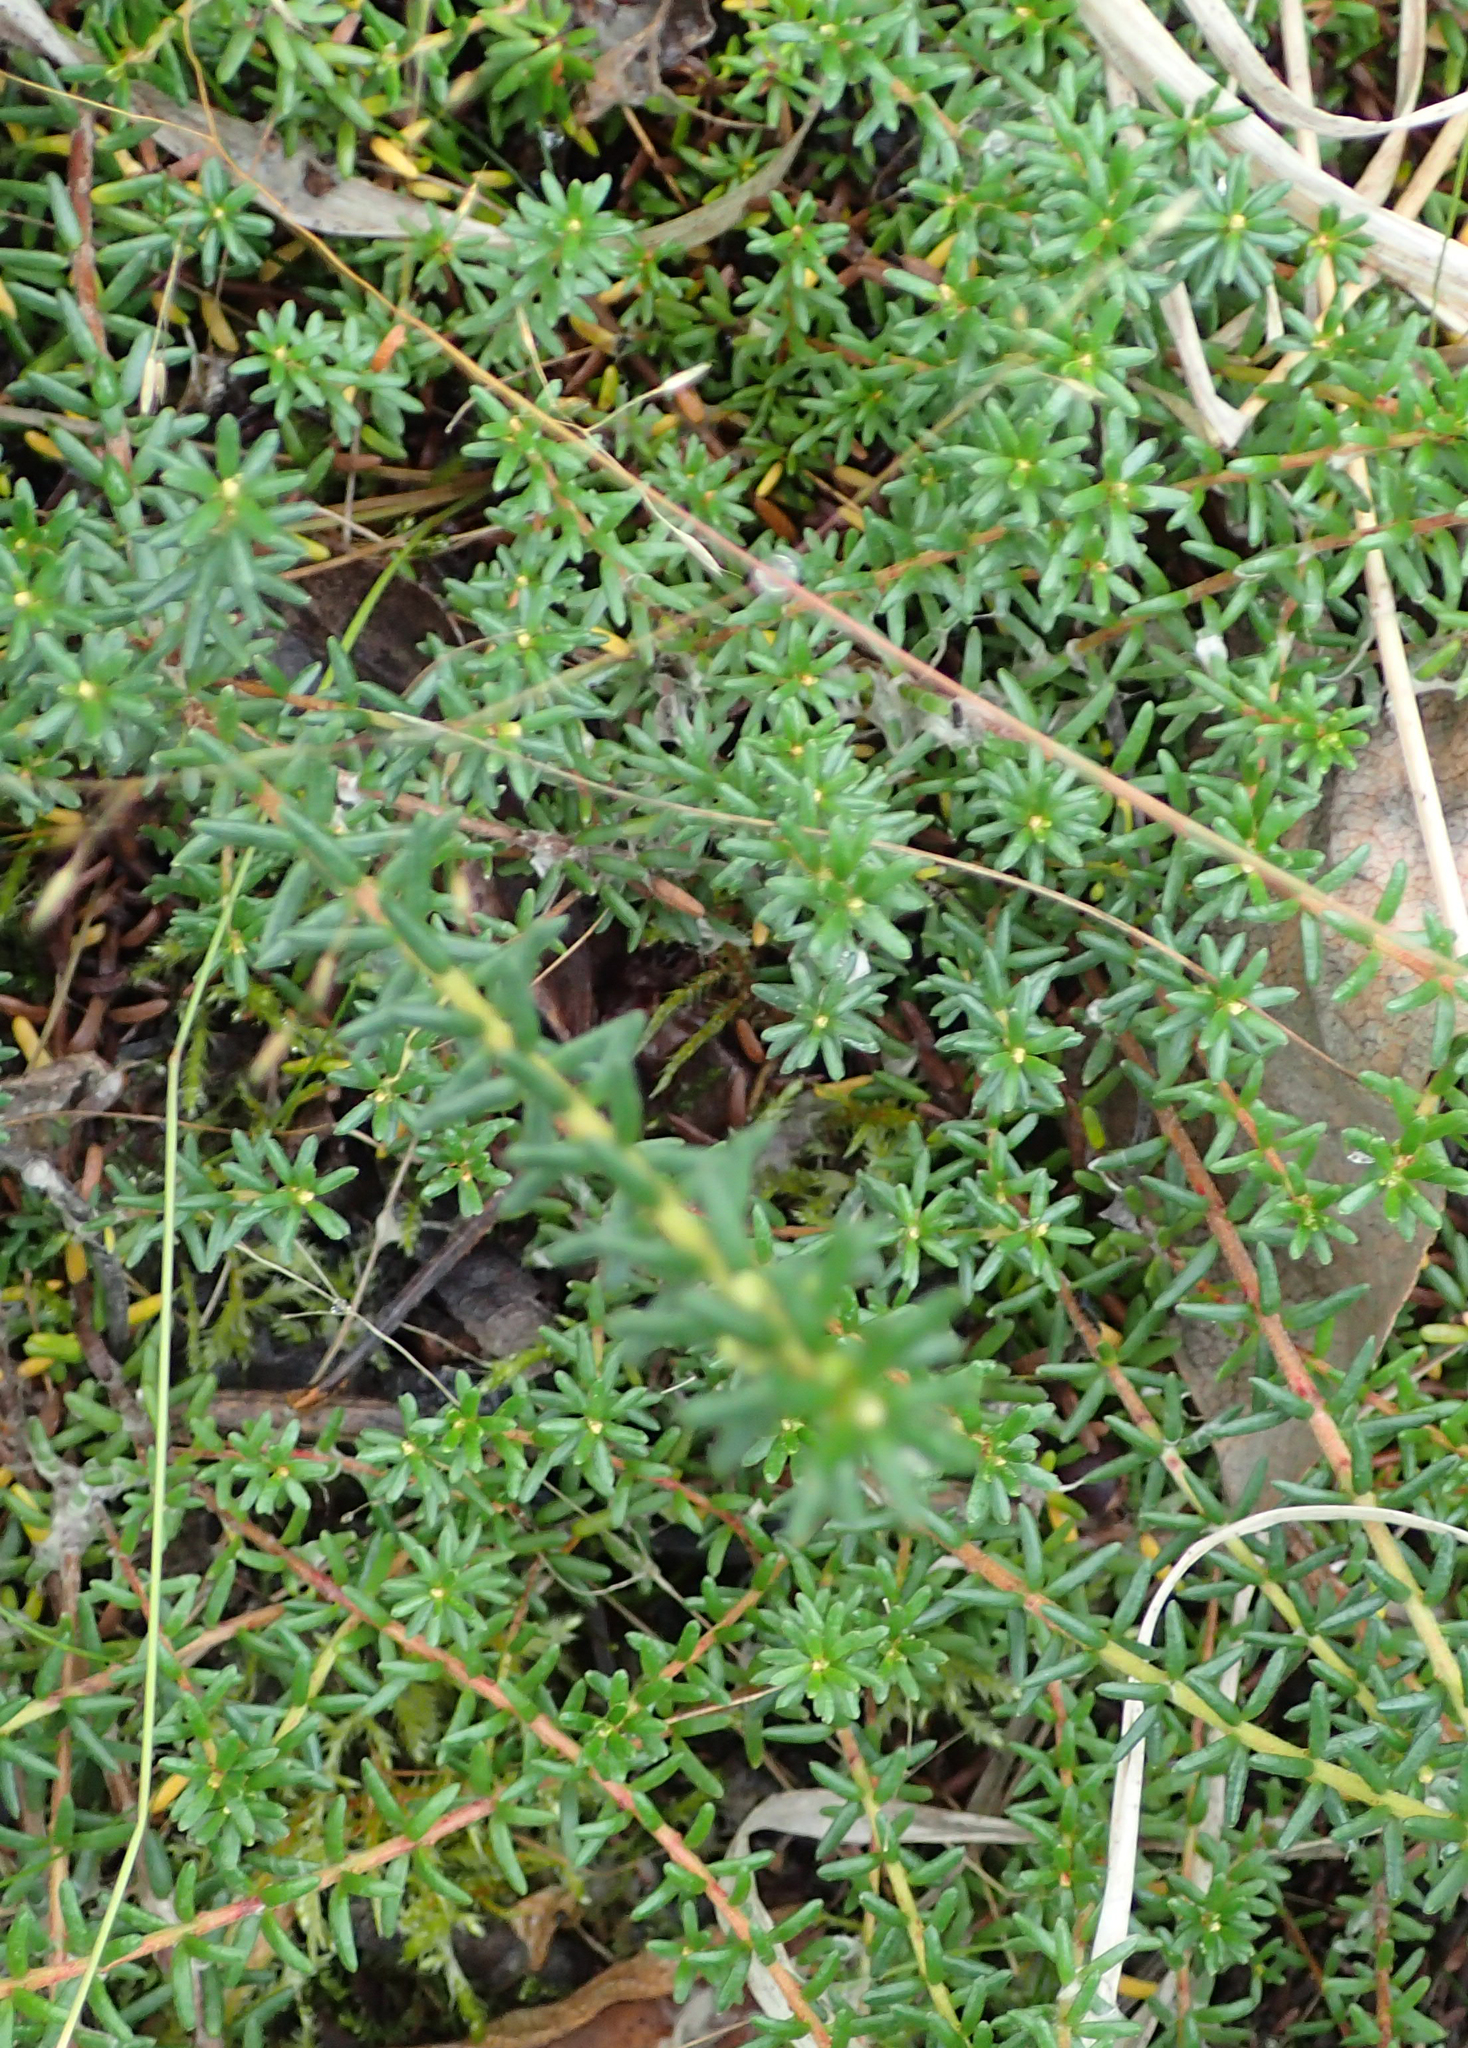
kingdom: Plantae
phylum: Tracheophyta
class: Magnoliopsida
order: Ericales
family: Ericaceae
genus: Empetrum
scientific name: Empetrum nigrum
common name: Black crowberry
